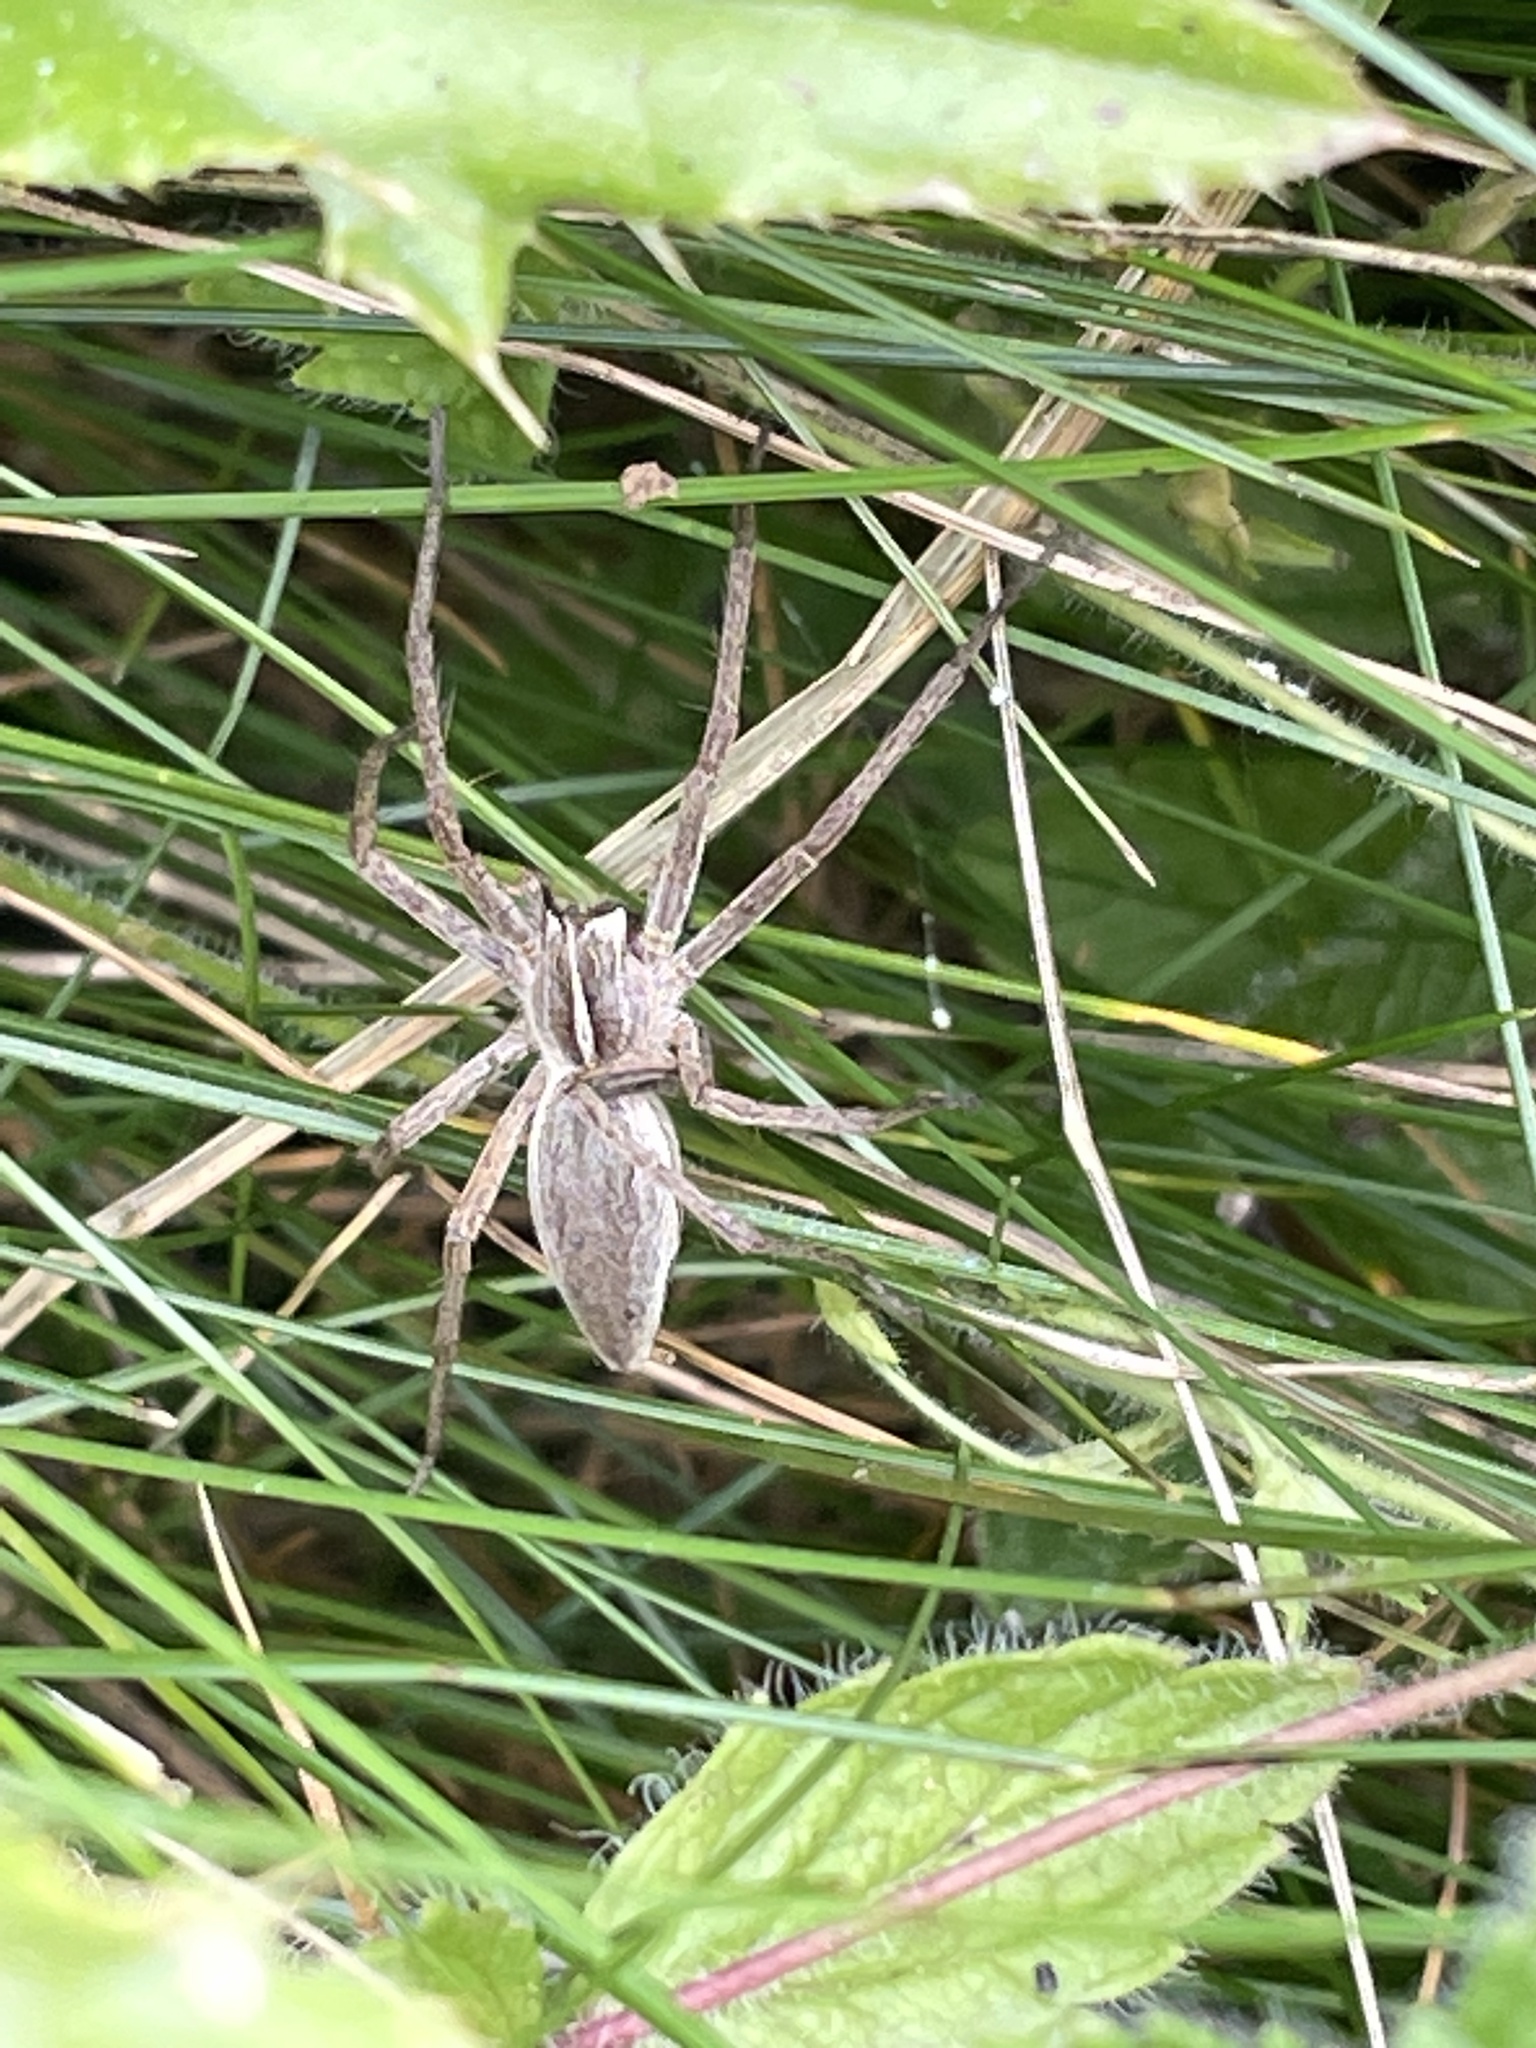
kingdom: Animalia
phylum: Arthropoda
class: Arachnida
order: Araneae
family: Pisauridae
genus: Pisaura
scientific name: Pisaura mirabilis
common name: Tent spider
